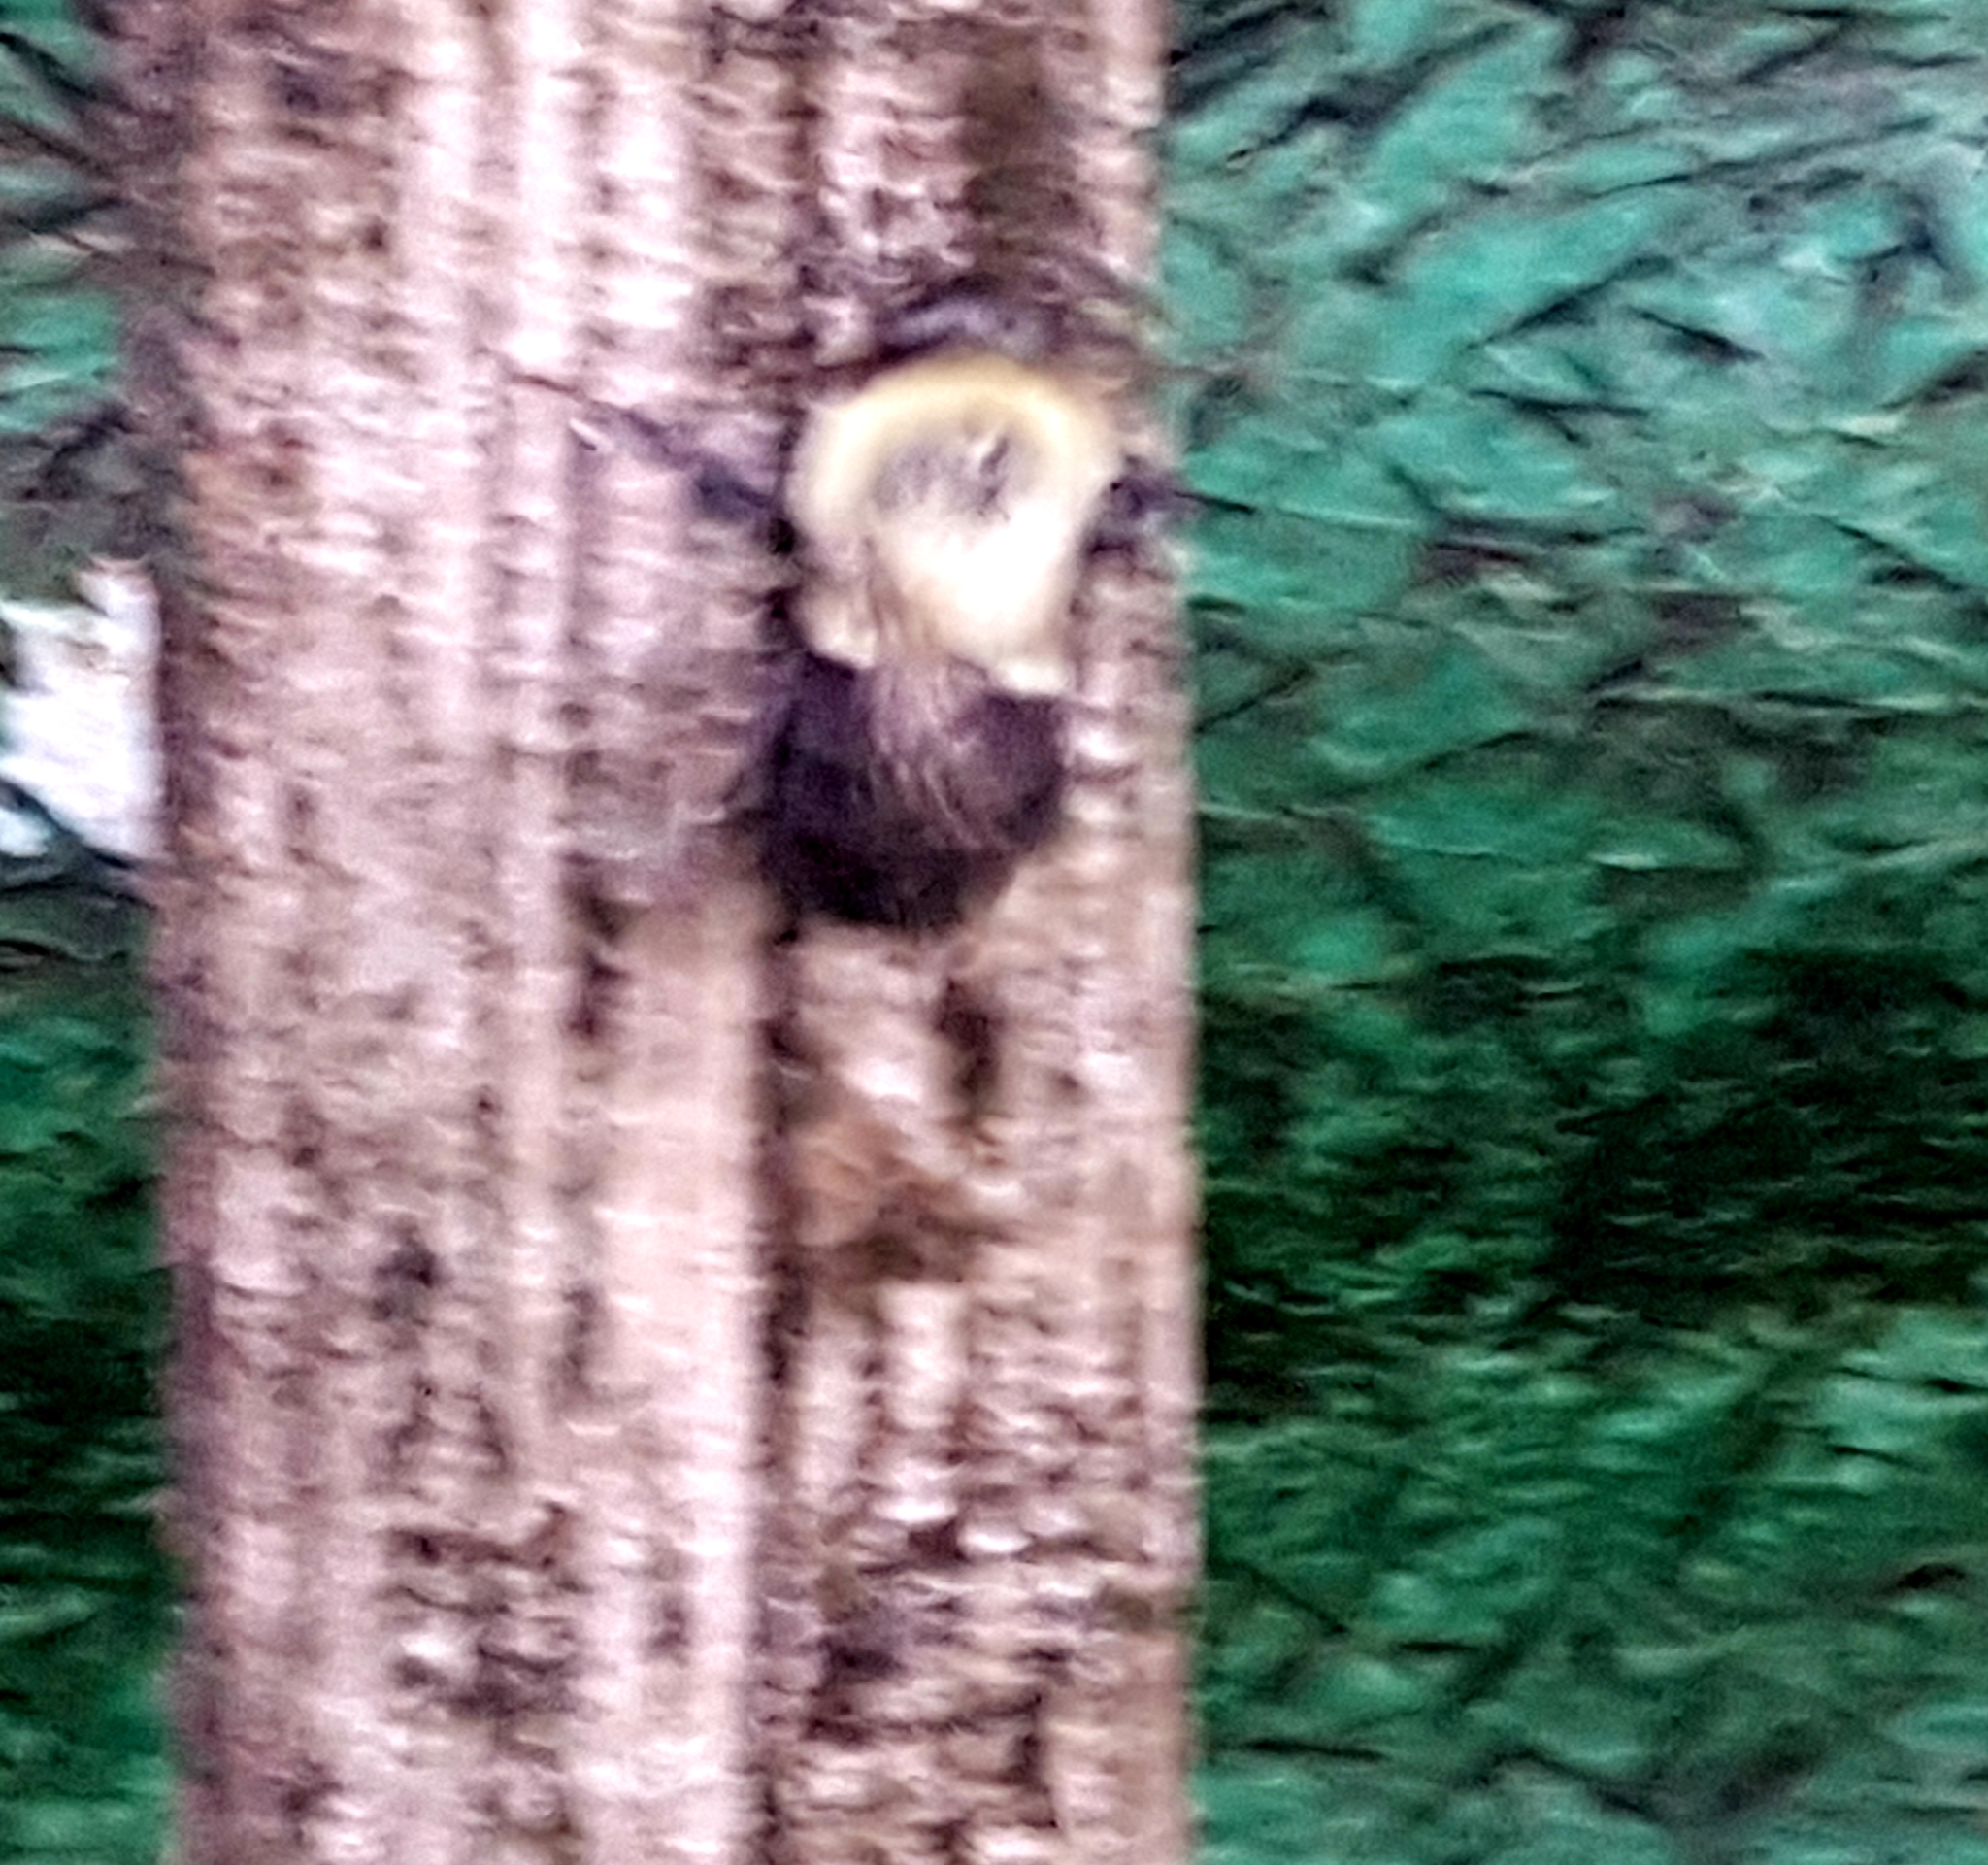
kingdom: Animalia
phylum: Arthropoda
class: Insecta
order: Hymenoptera
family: Apidae
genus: Bombus
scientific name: Bombus impatiens
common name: Common eastern bumble bee
